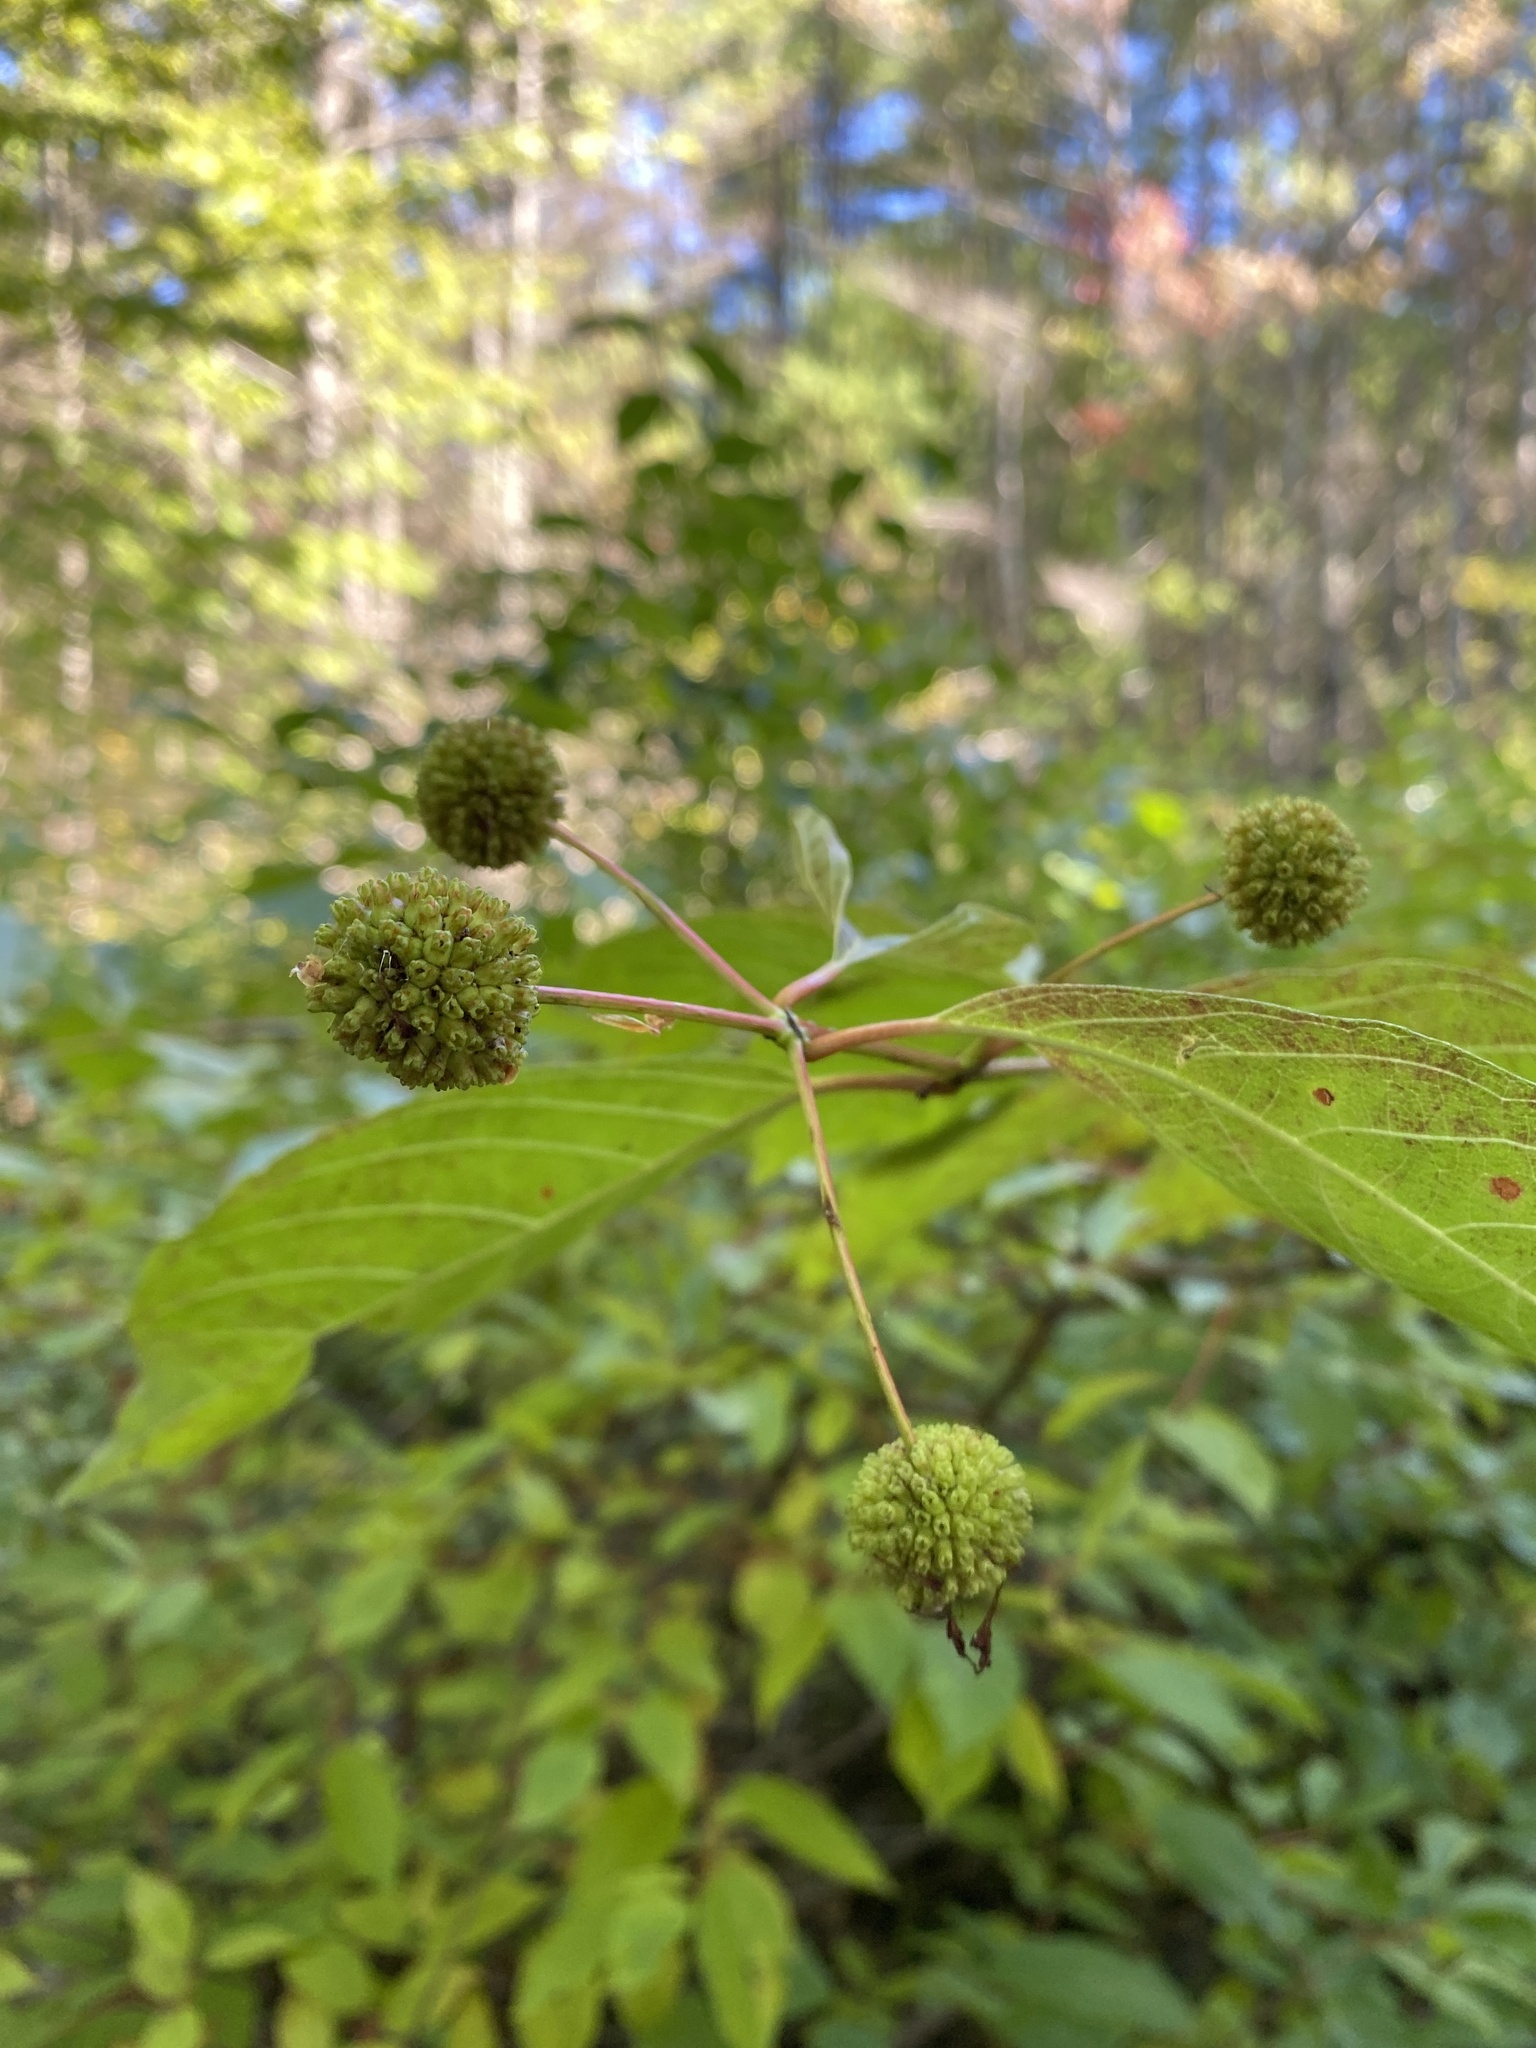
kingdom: Plantae
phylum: Tracheophyta
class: Magnoliopsida
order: Gentianales
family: Rubiaceae
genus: Cephalanthus
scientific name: Cephalanthus occidentalis
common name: Button-willow
